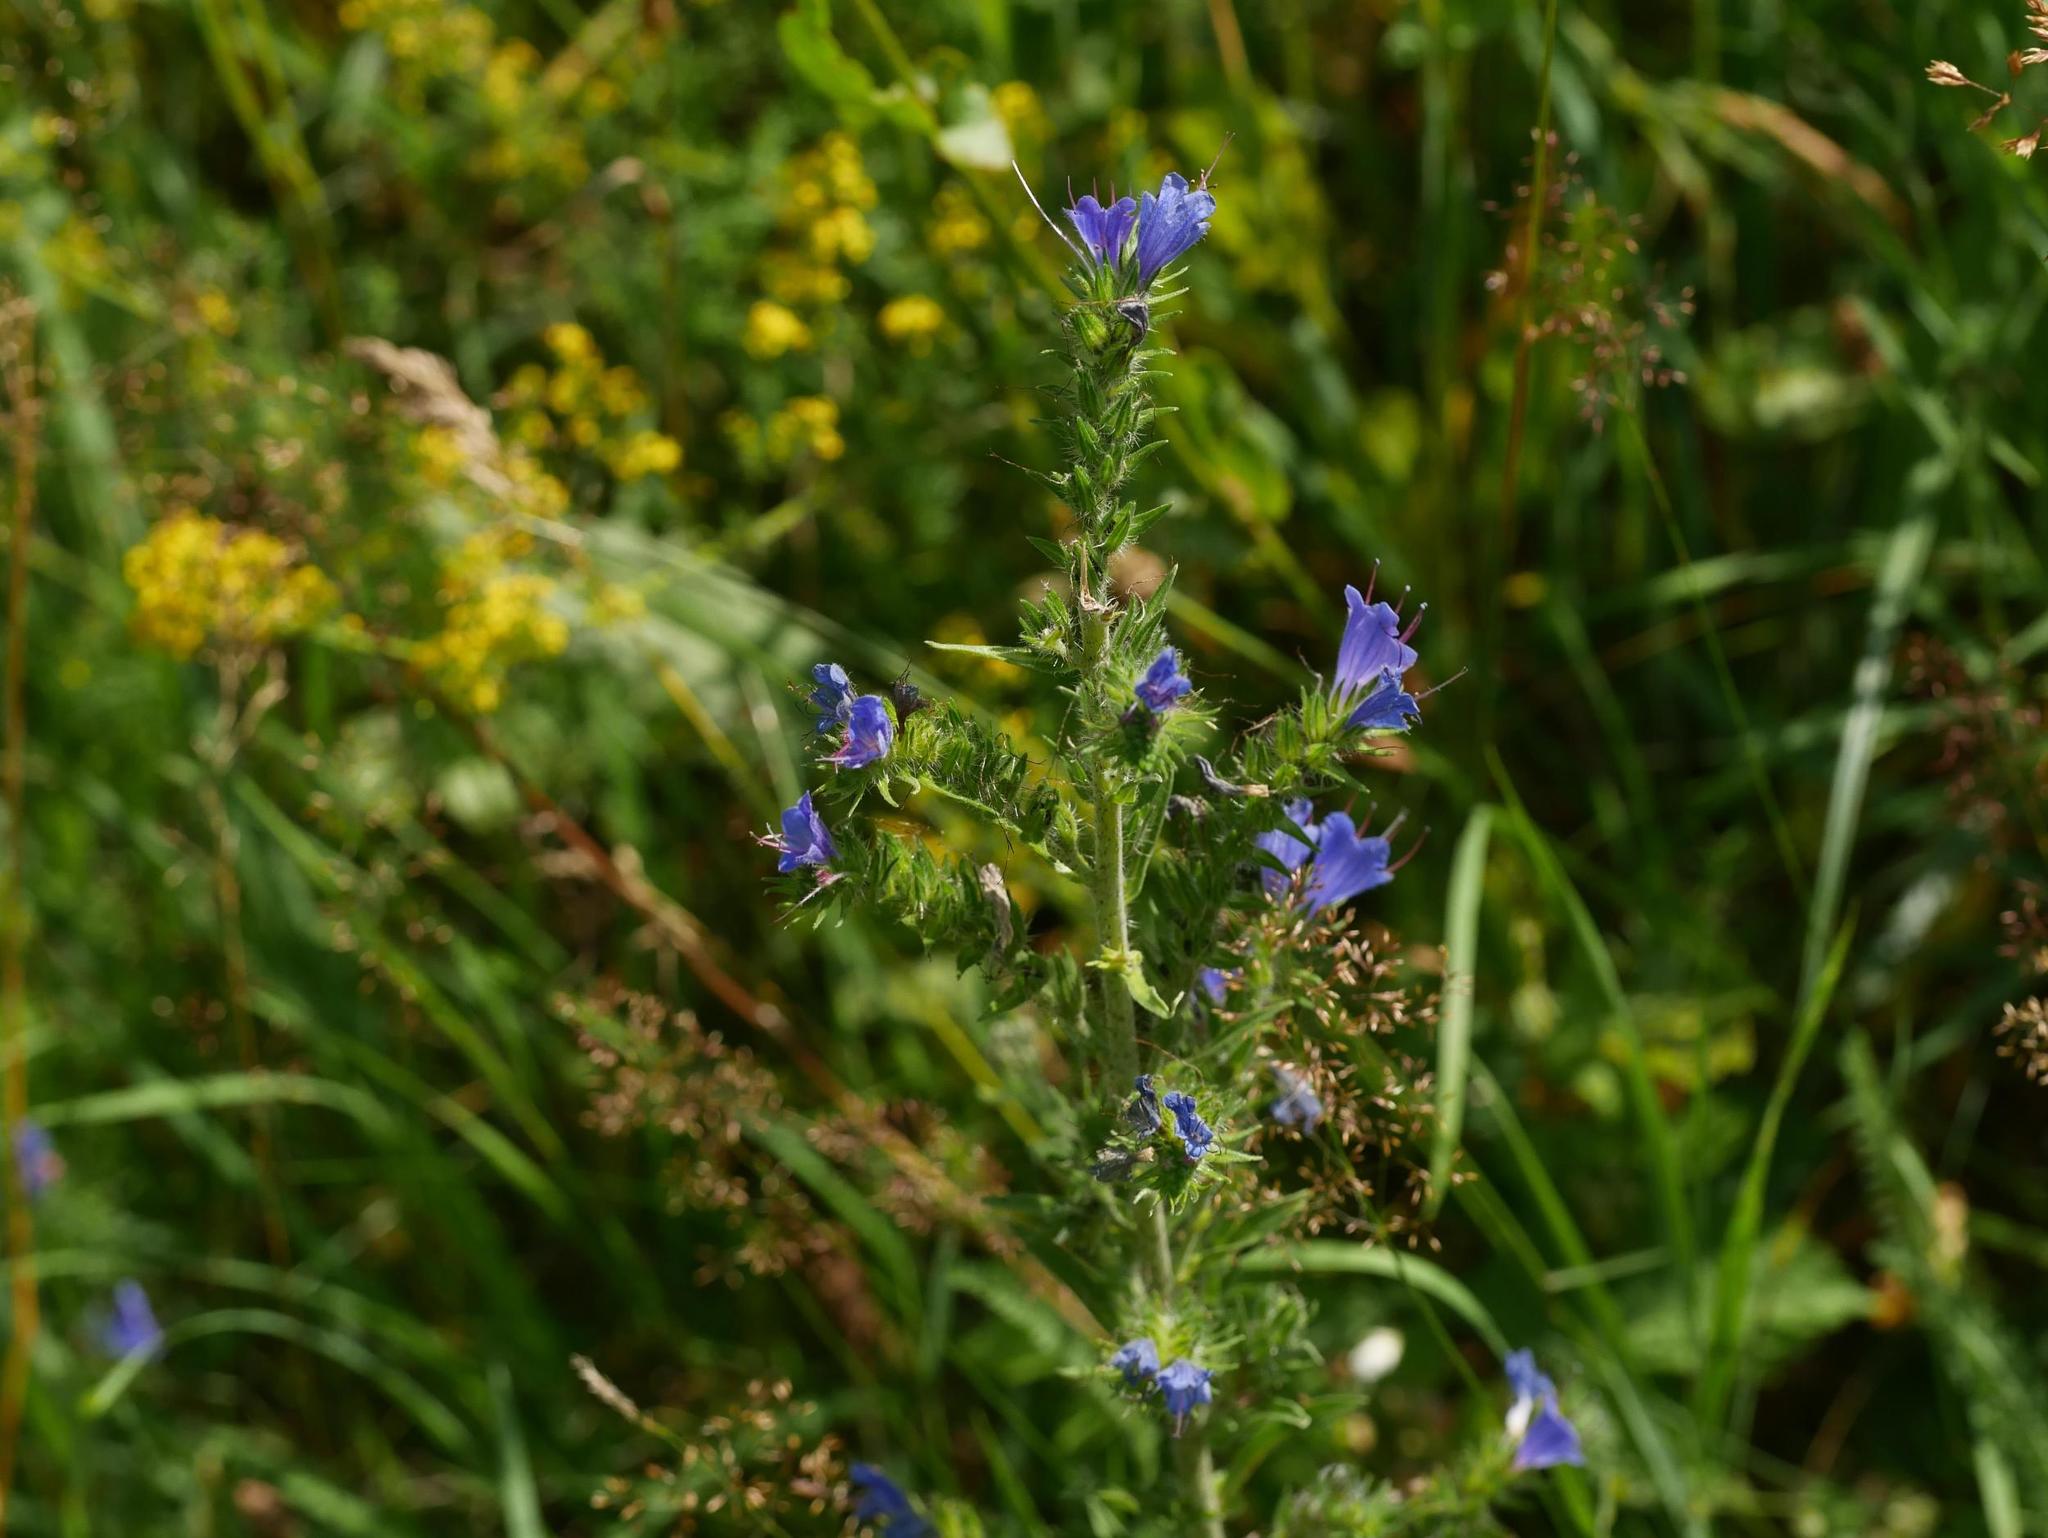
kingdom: Plantae
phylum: Tracheophyta
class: Magnoliopsida
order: Boraginales
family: Boraginaceae
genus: Echium
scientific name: Echium vulgare
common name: Common viper's bugloss
